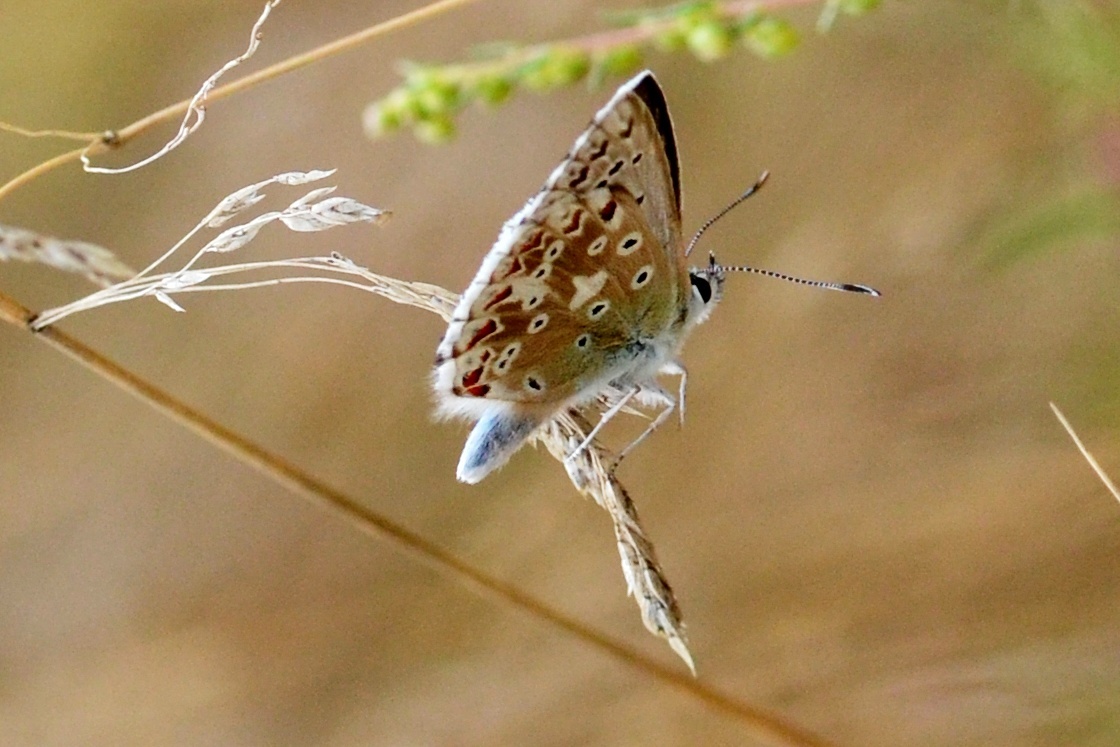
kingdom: Animalia
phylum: Arthropoda
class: Insecta
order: Lepidoptera
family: Lycaenidae
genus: Lysandra
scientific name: Lysandra coridon
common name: Chalkhill blue
